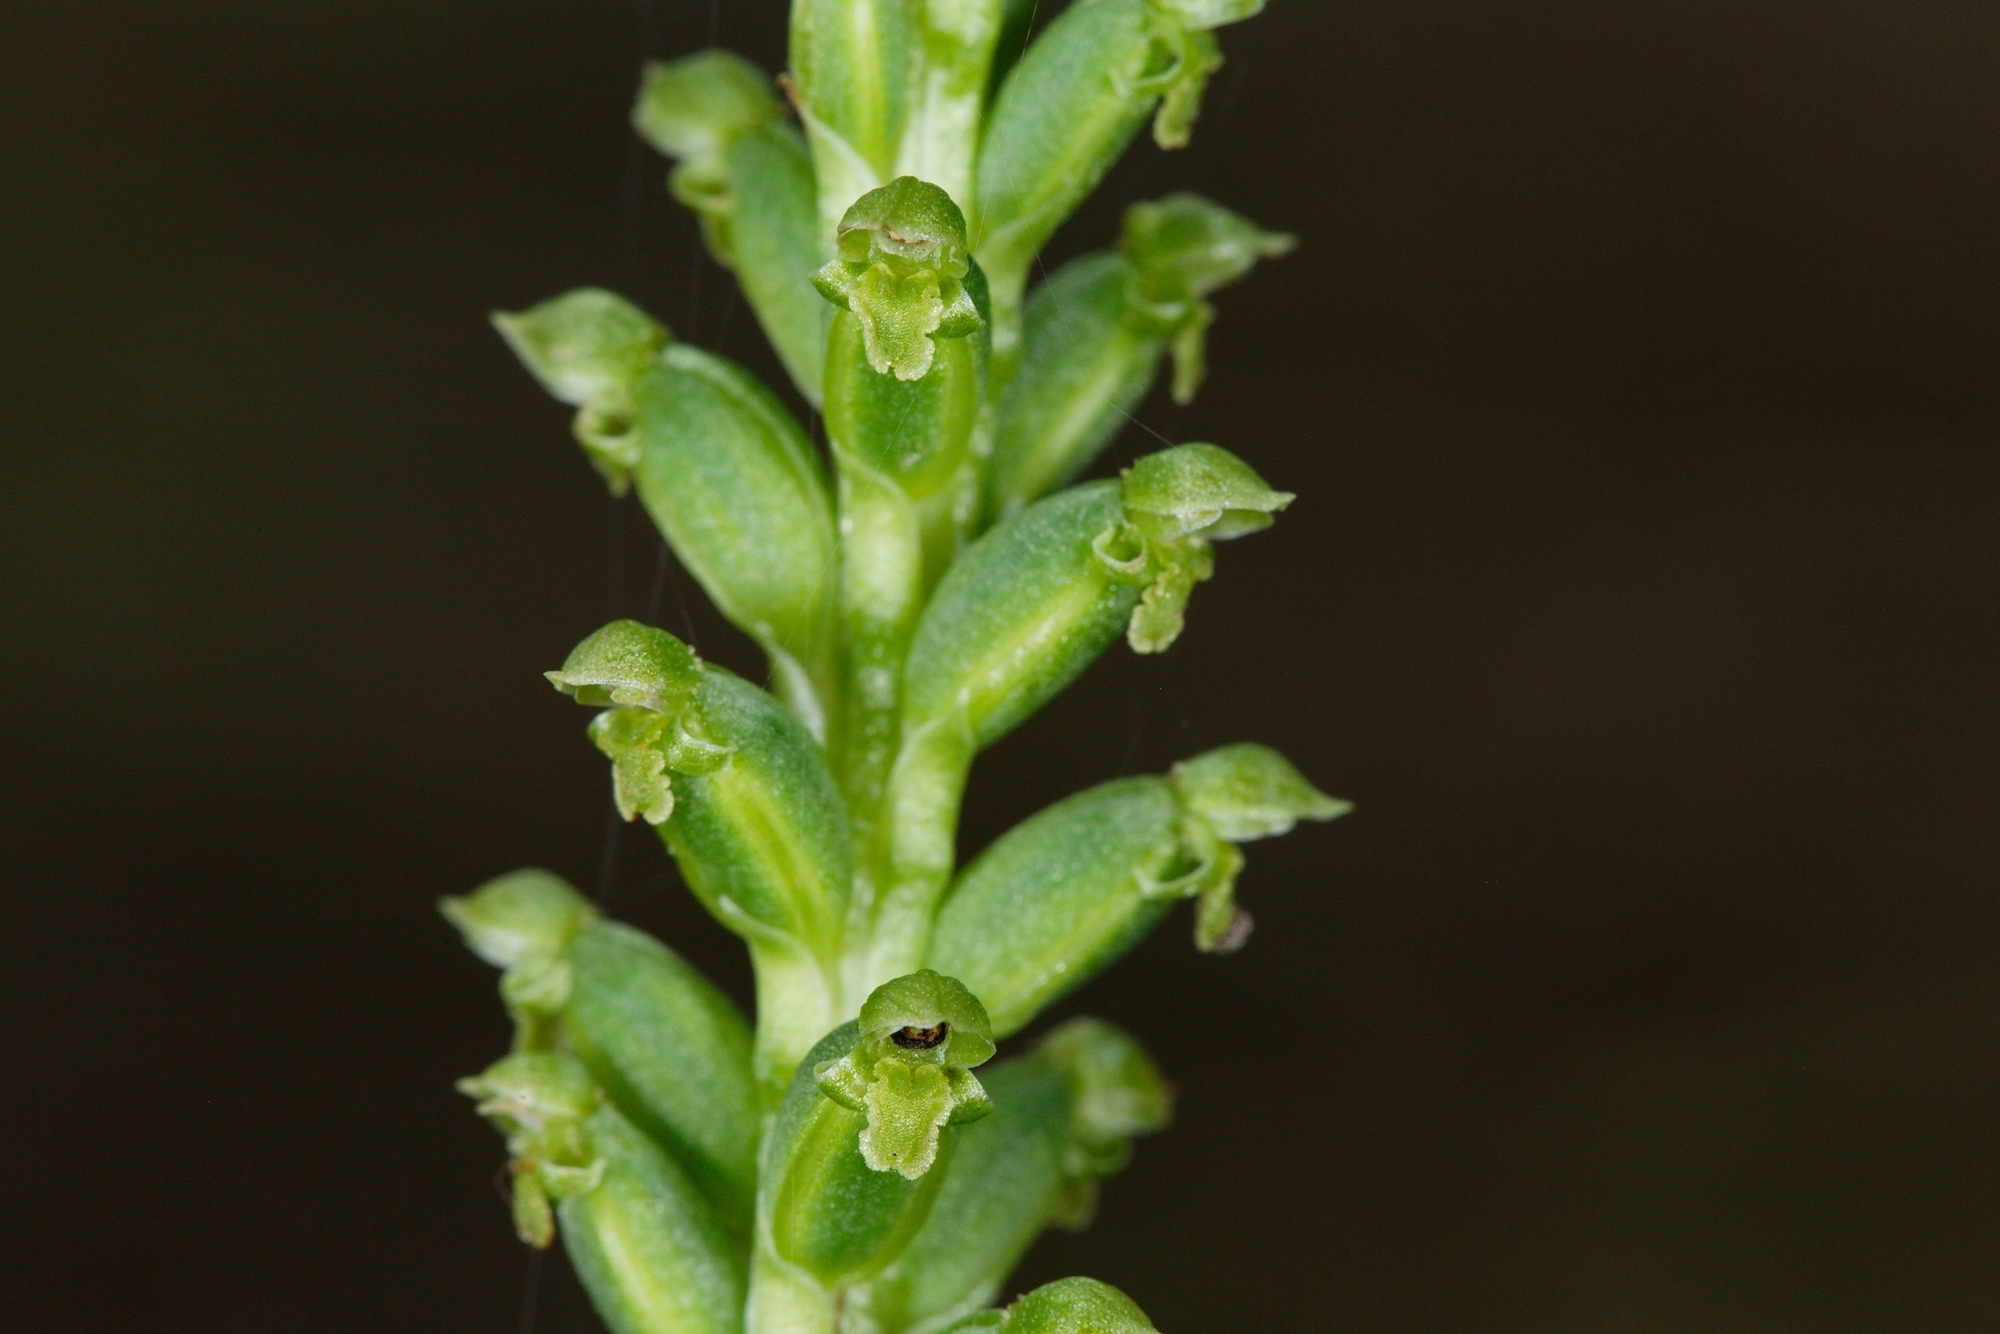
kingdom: Plantae
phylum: Tracheophyta
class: Liliopsida
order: Asparagales
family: Orchidaceae
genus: Microtis
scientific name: Microtis unifolia
